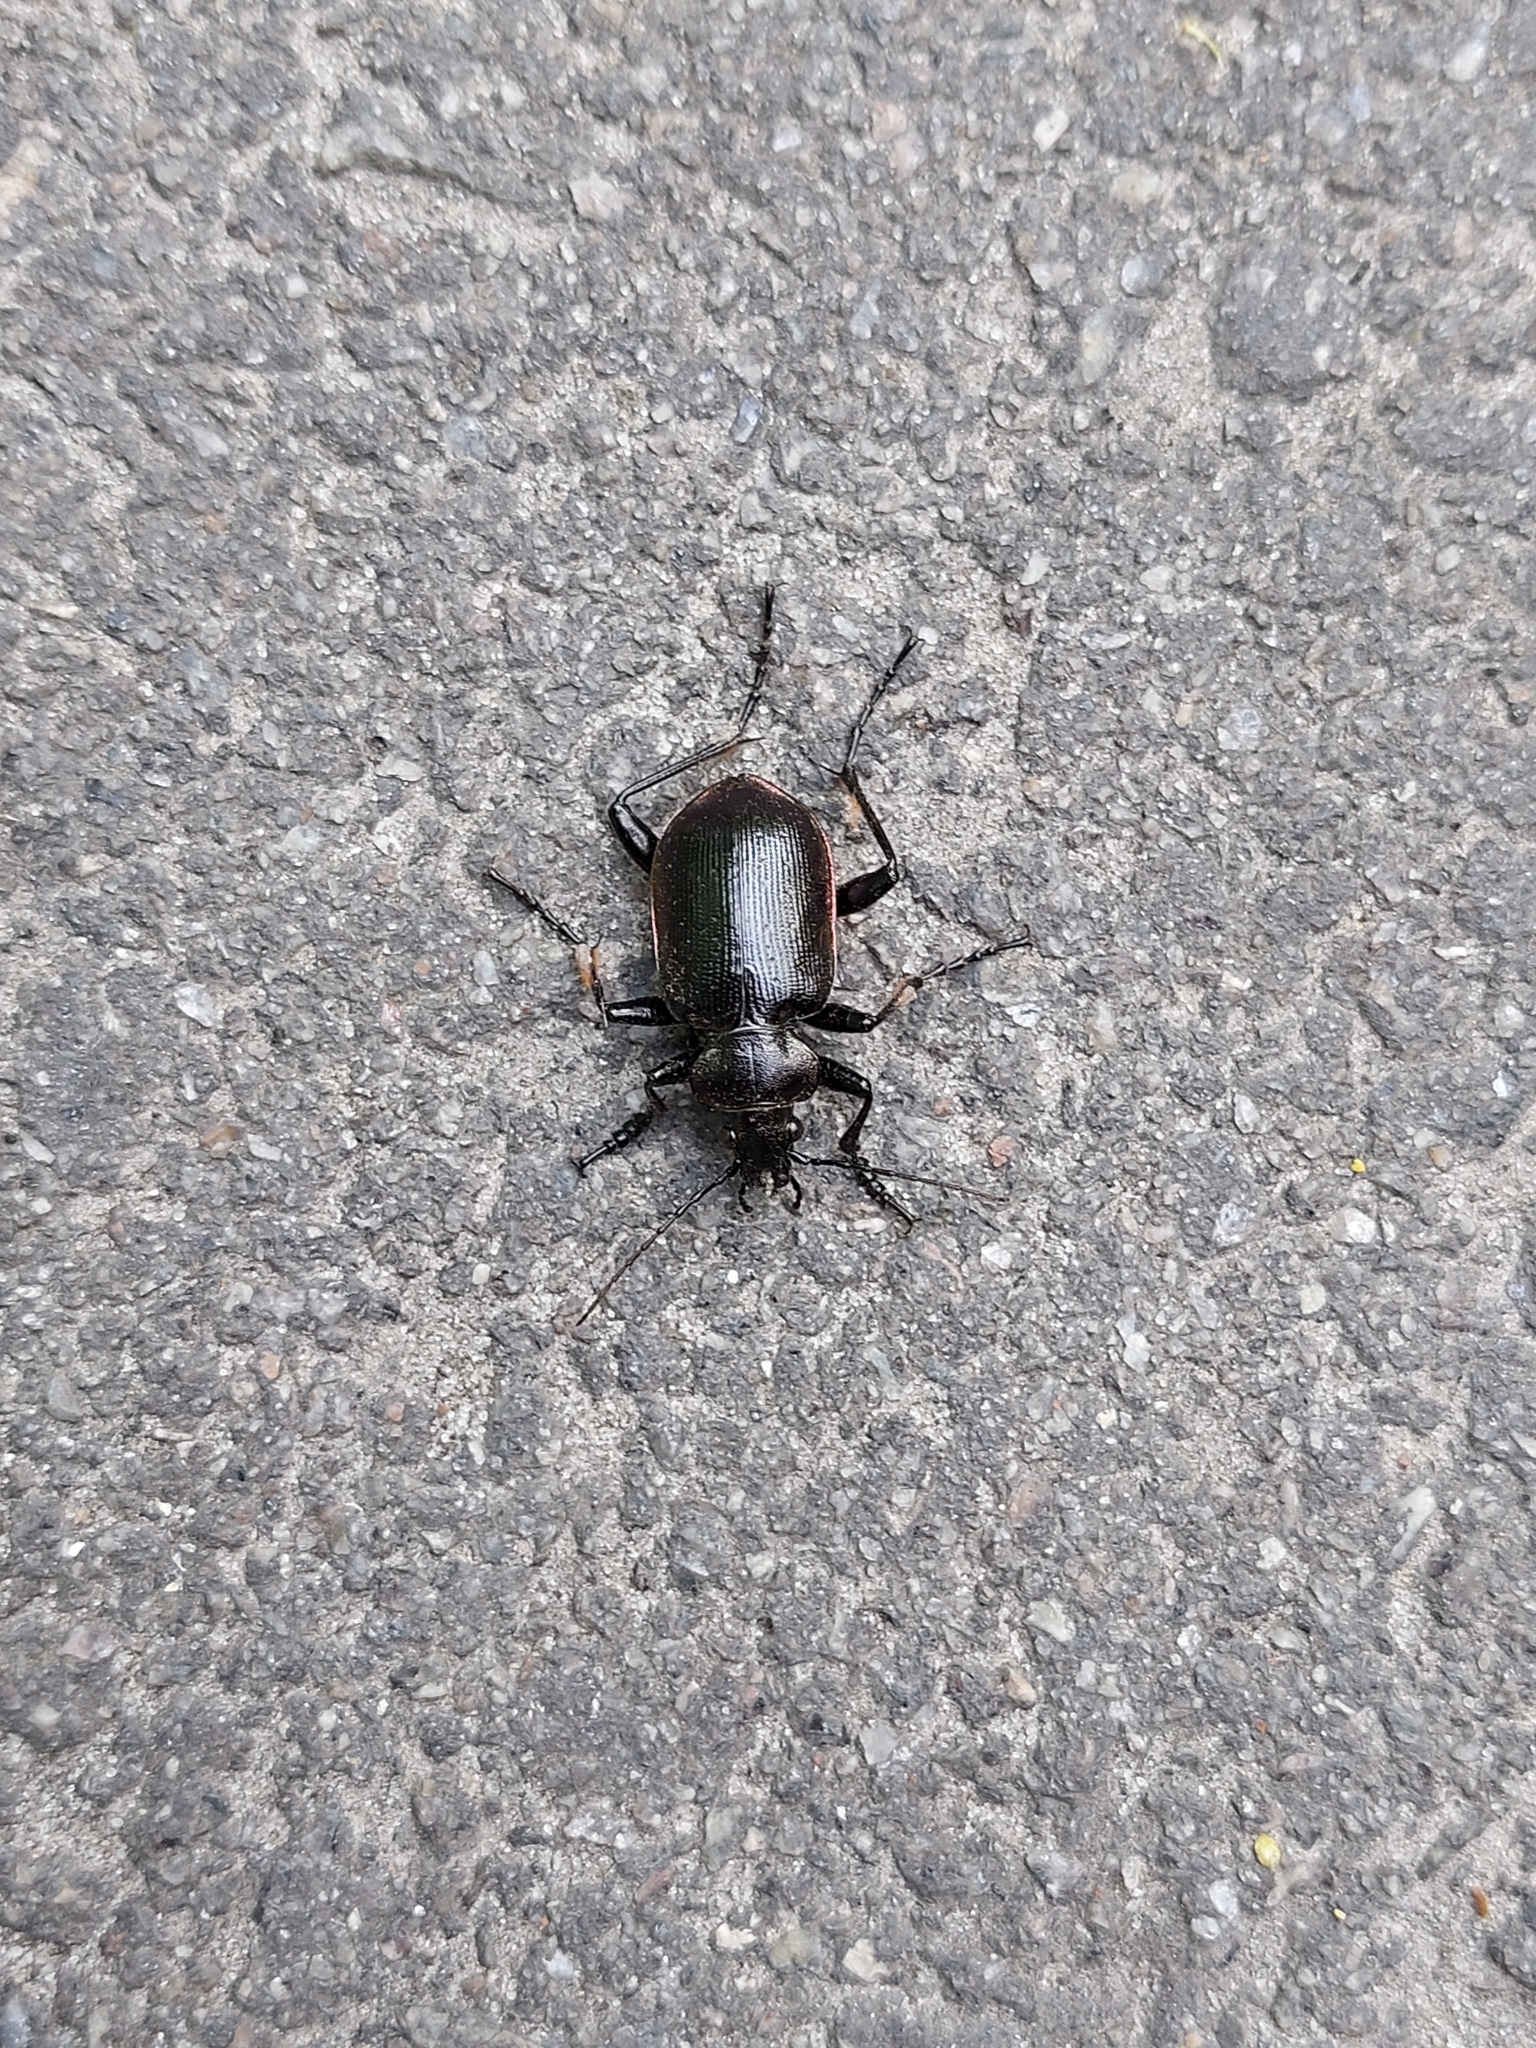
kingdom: Animalia
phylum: Arthropoda
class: Insecta
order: Coleoptera
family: Carabidae
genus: Calosoma
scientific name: Calosoma inquisitor
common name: Caterpillar-hunter
